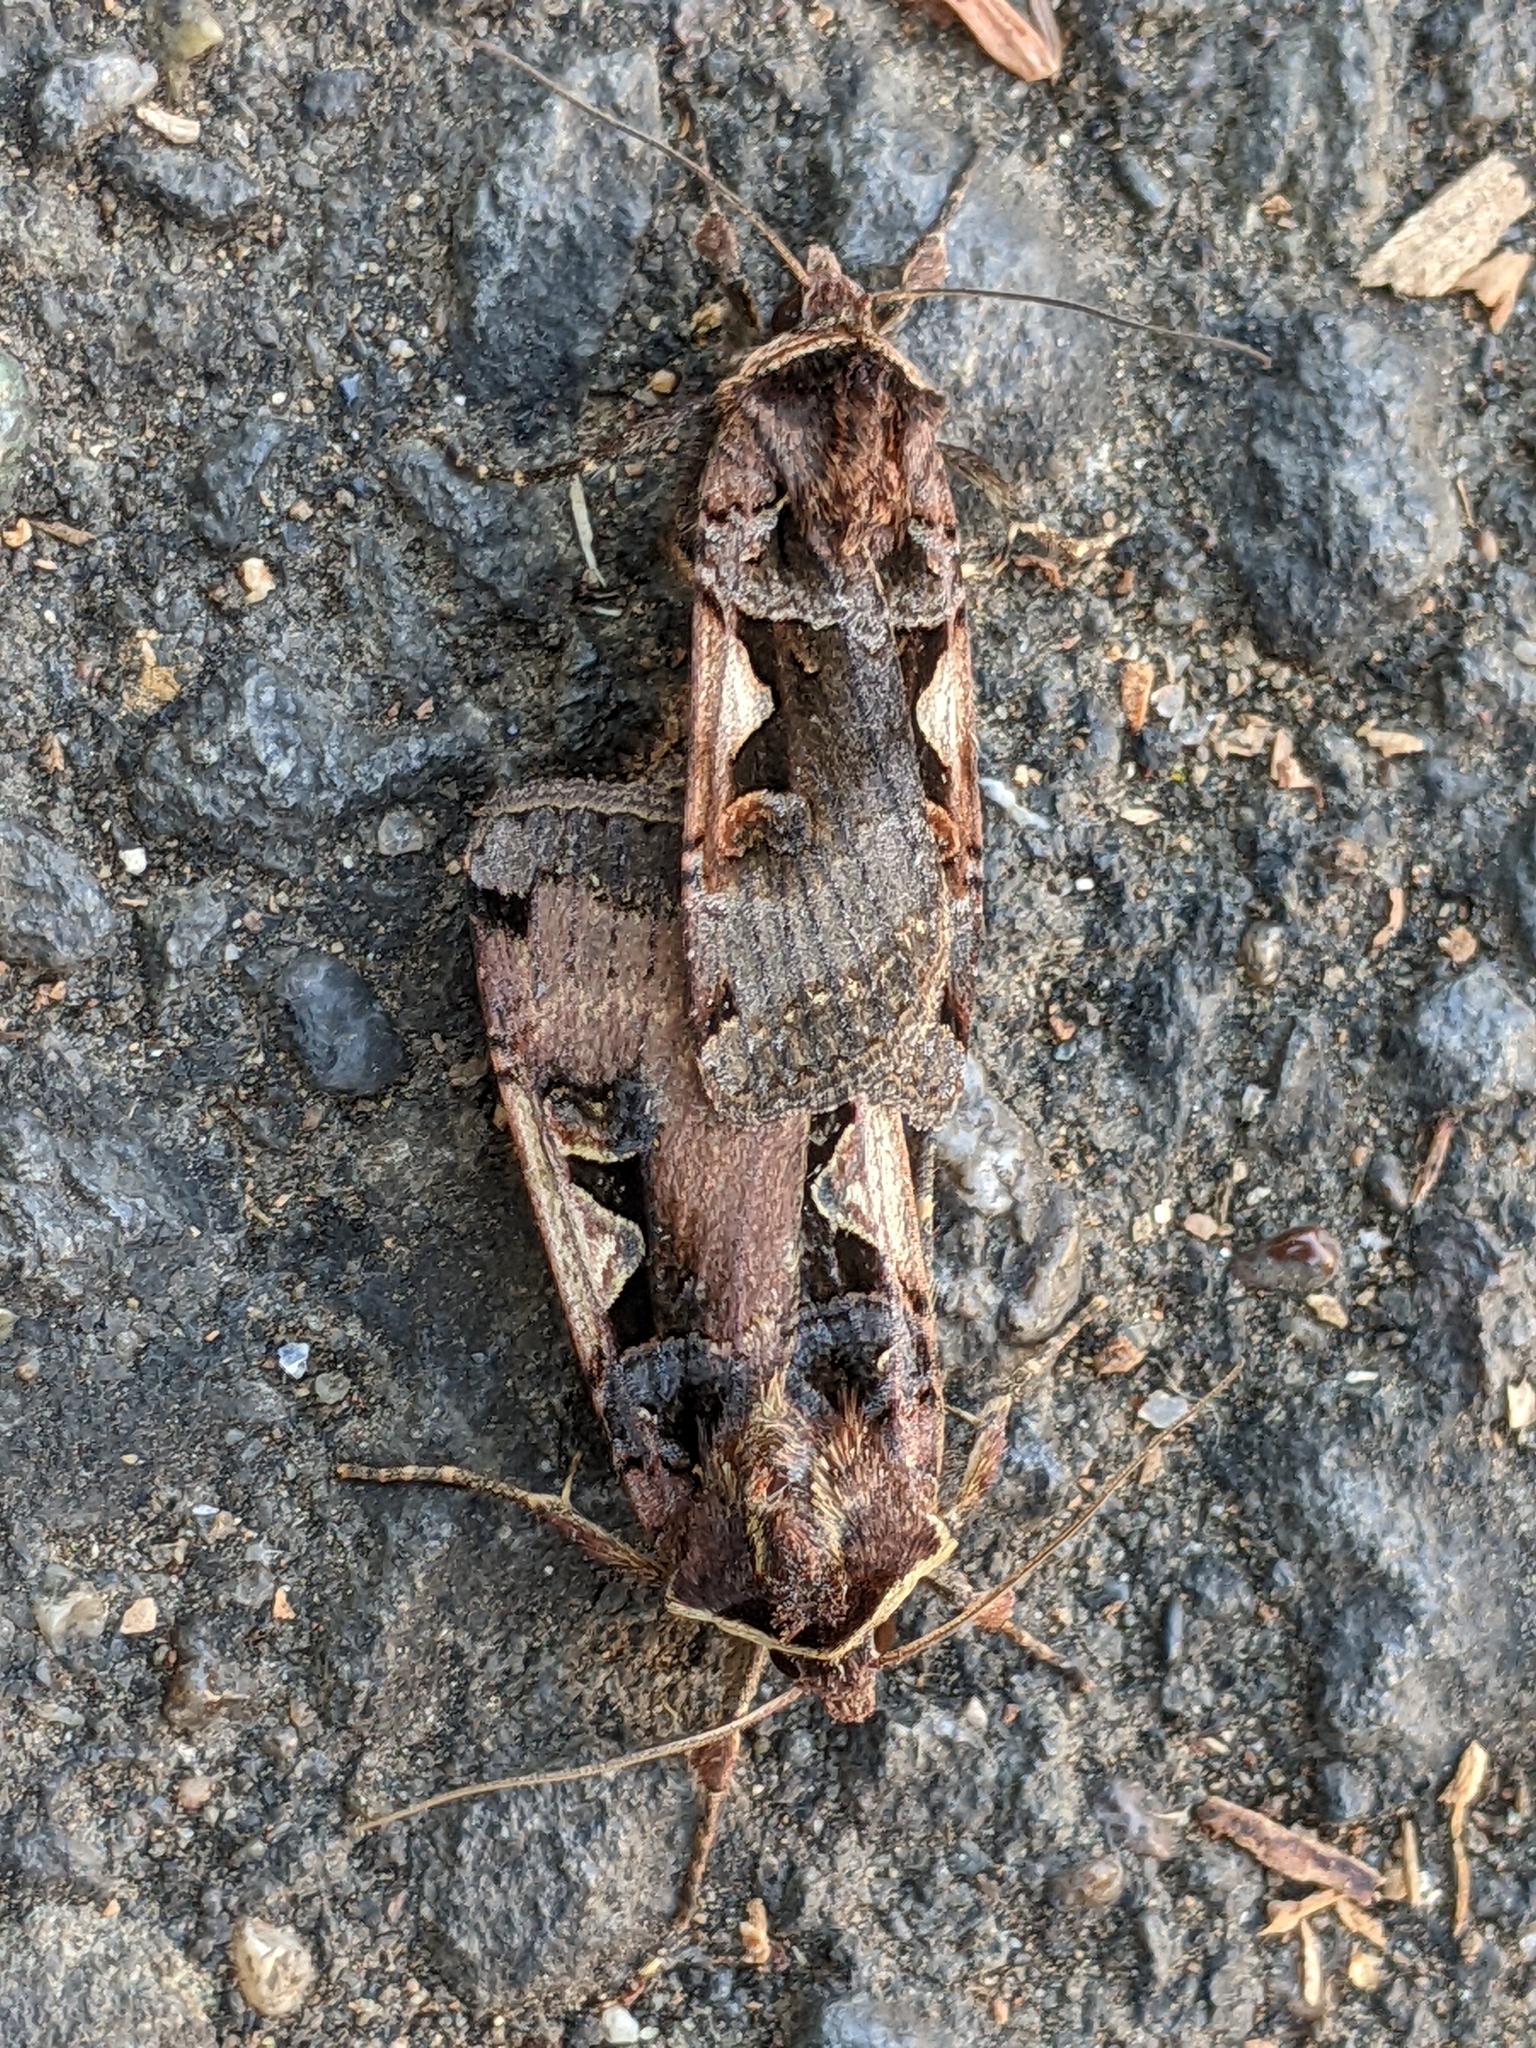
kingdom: Animalia
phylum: Arthropoda
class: Insecta
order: Lepidoptera
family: Noctuidae
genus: Xestia
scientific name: Xestia c-nigrum
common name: Setaceous hebrew character
